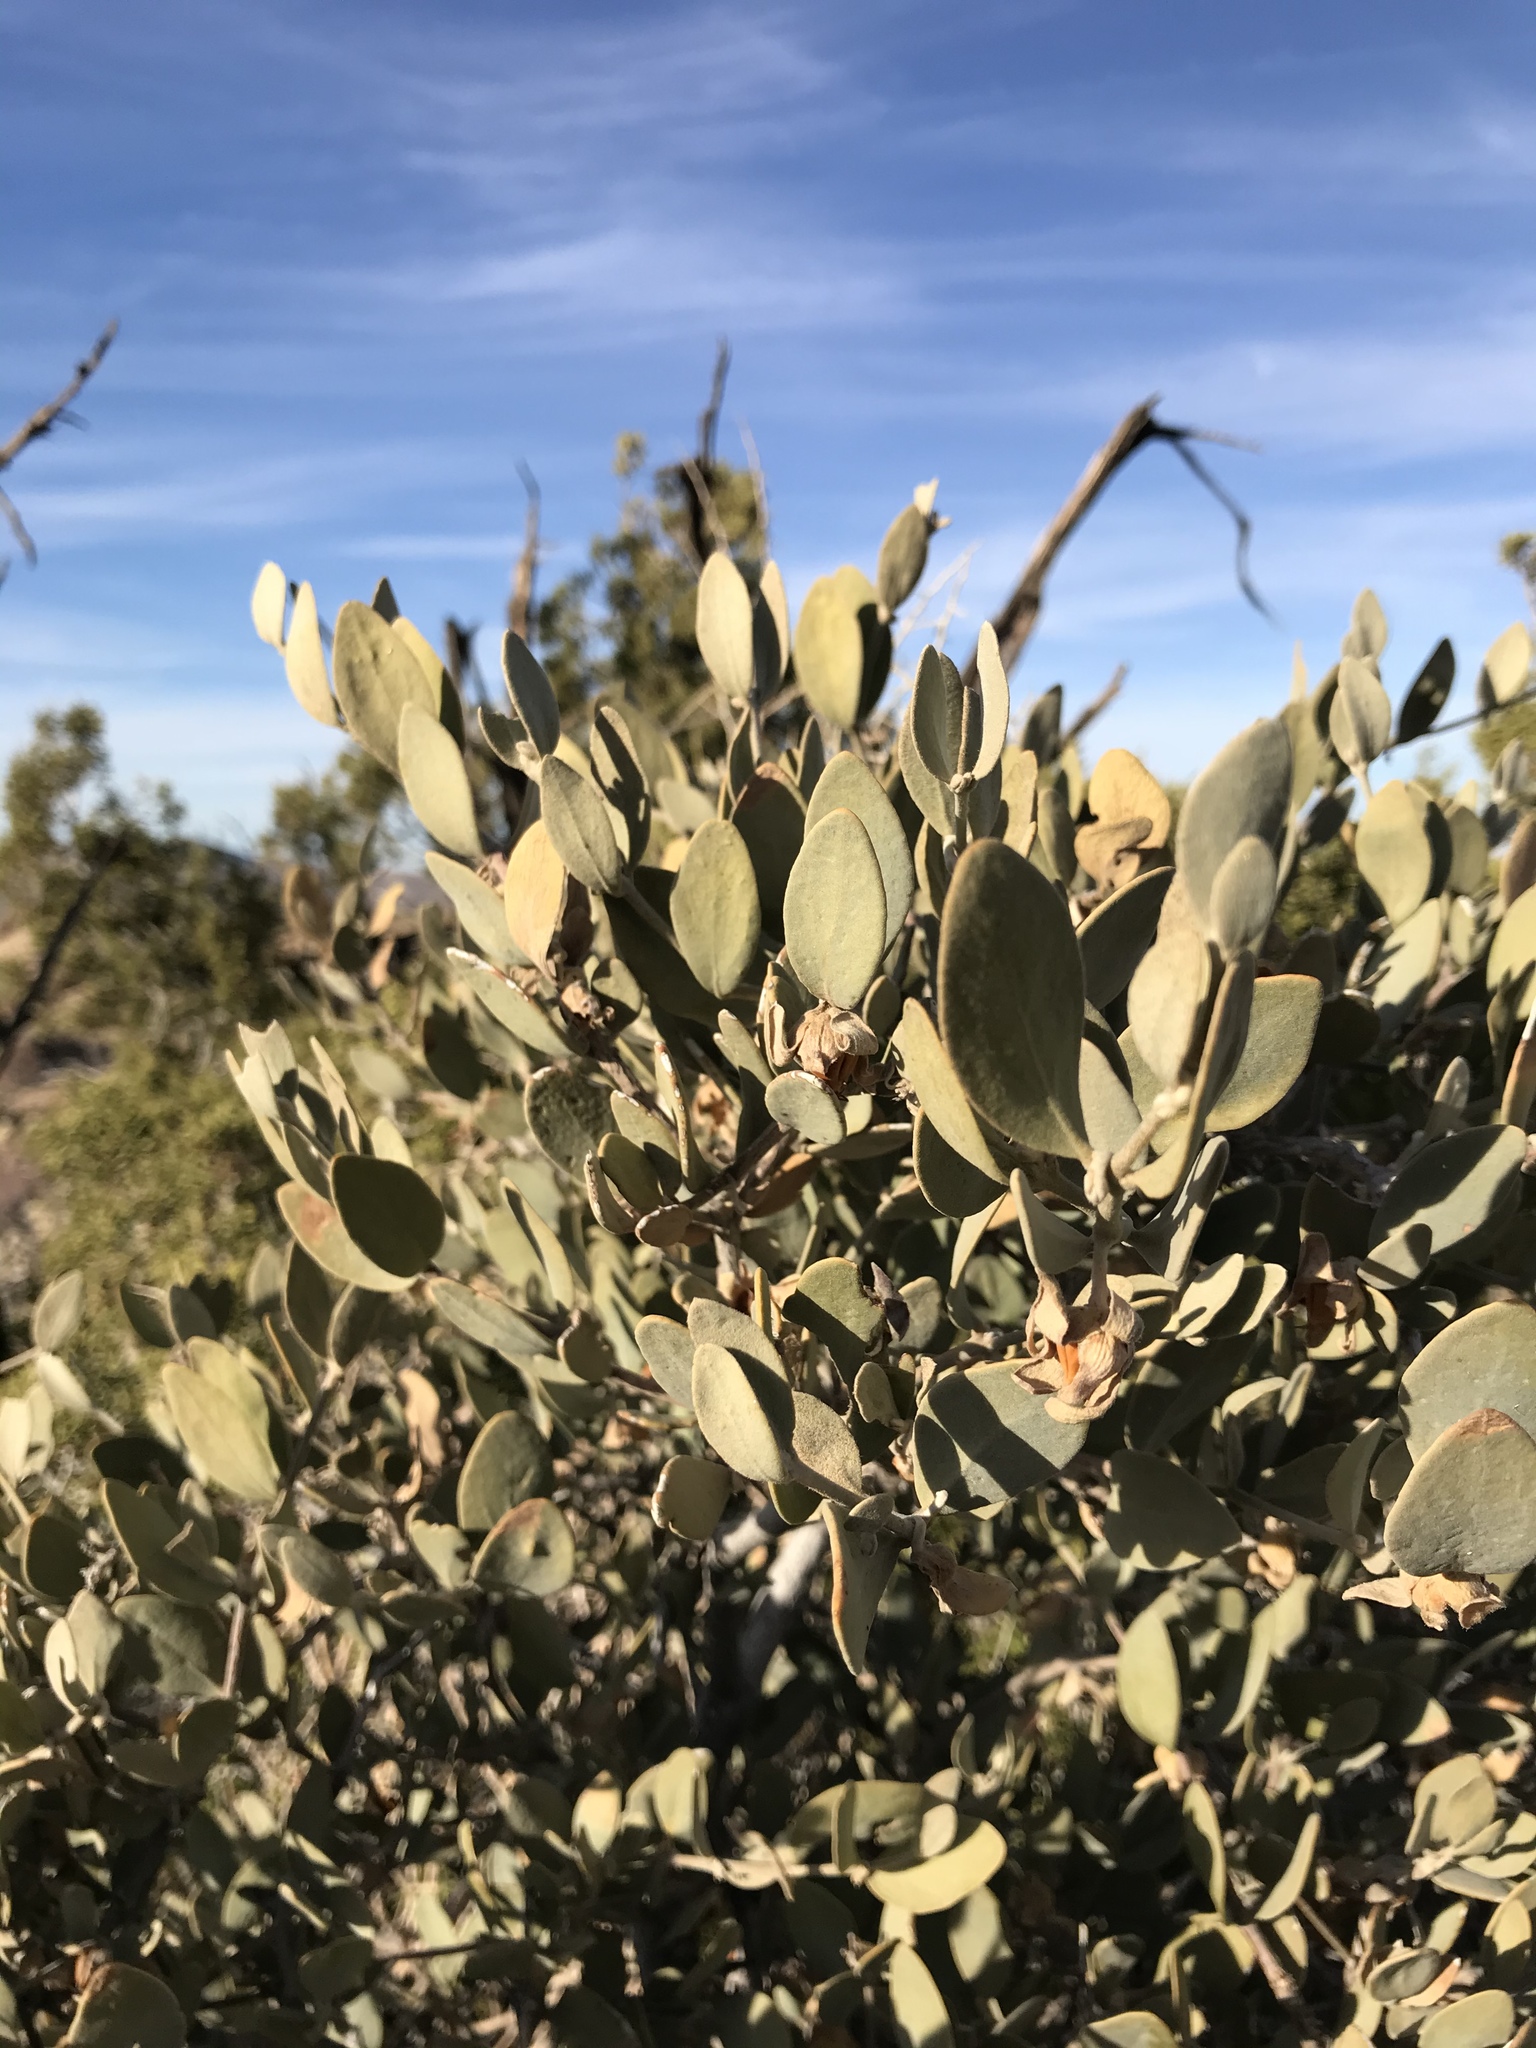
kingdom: Plantae
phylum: Tracheophyta
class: Magnoliopsida
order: Caryophyllales
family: Simmondsiaceae
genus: Simmondsia
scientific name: Simmondsia chinensis
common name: Jojoba
